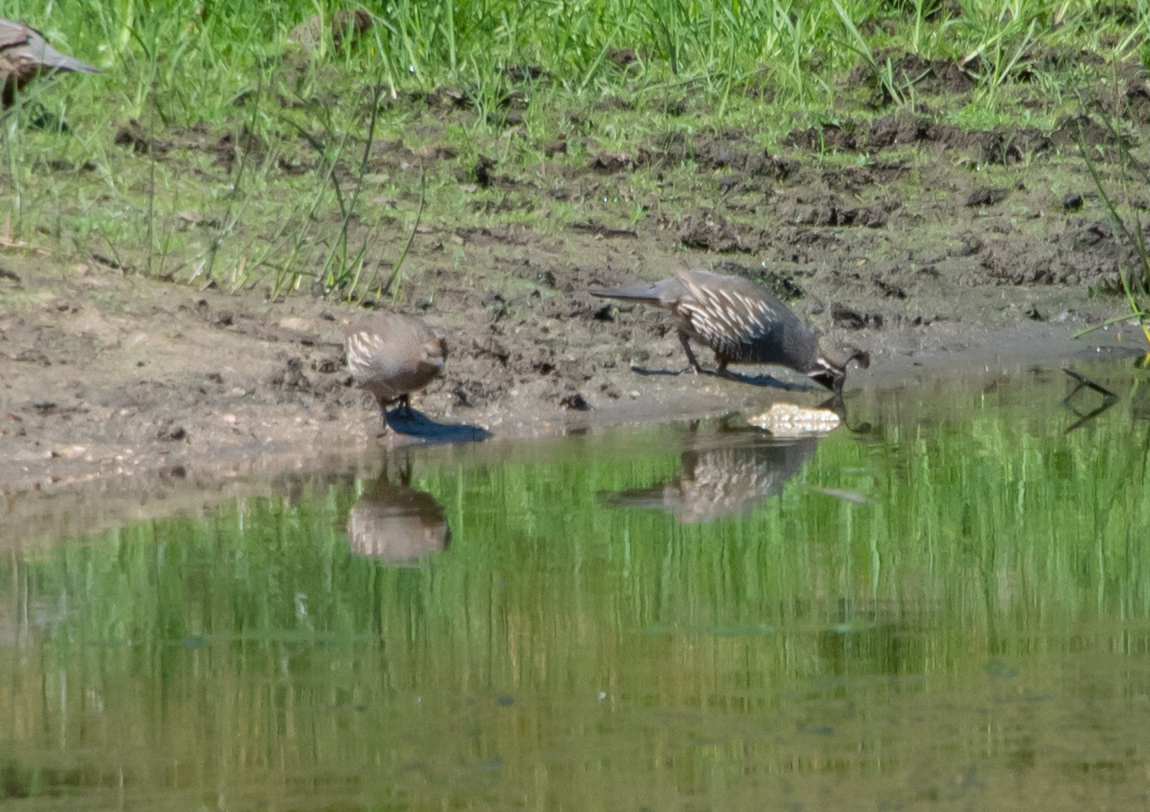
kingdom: Animalia
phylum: Chordata
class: Aves
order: Galliformes
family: Odontophoridae
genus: Callipepla
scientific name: Callipepla californica
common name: California quail
